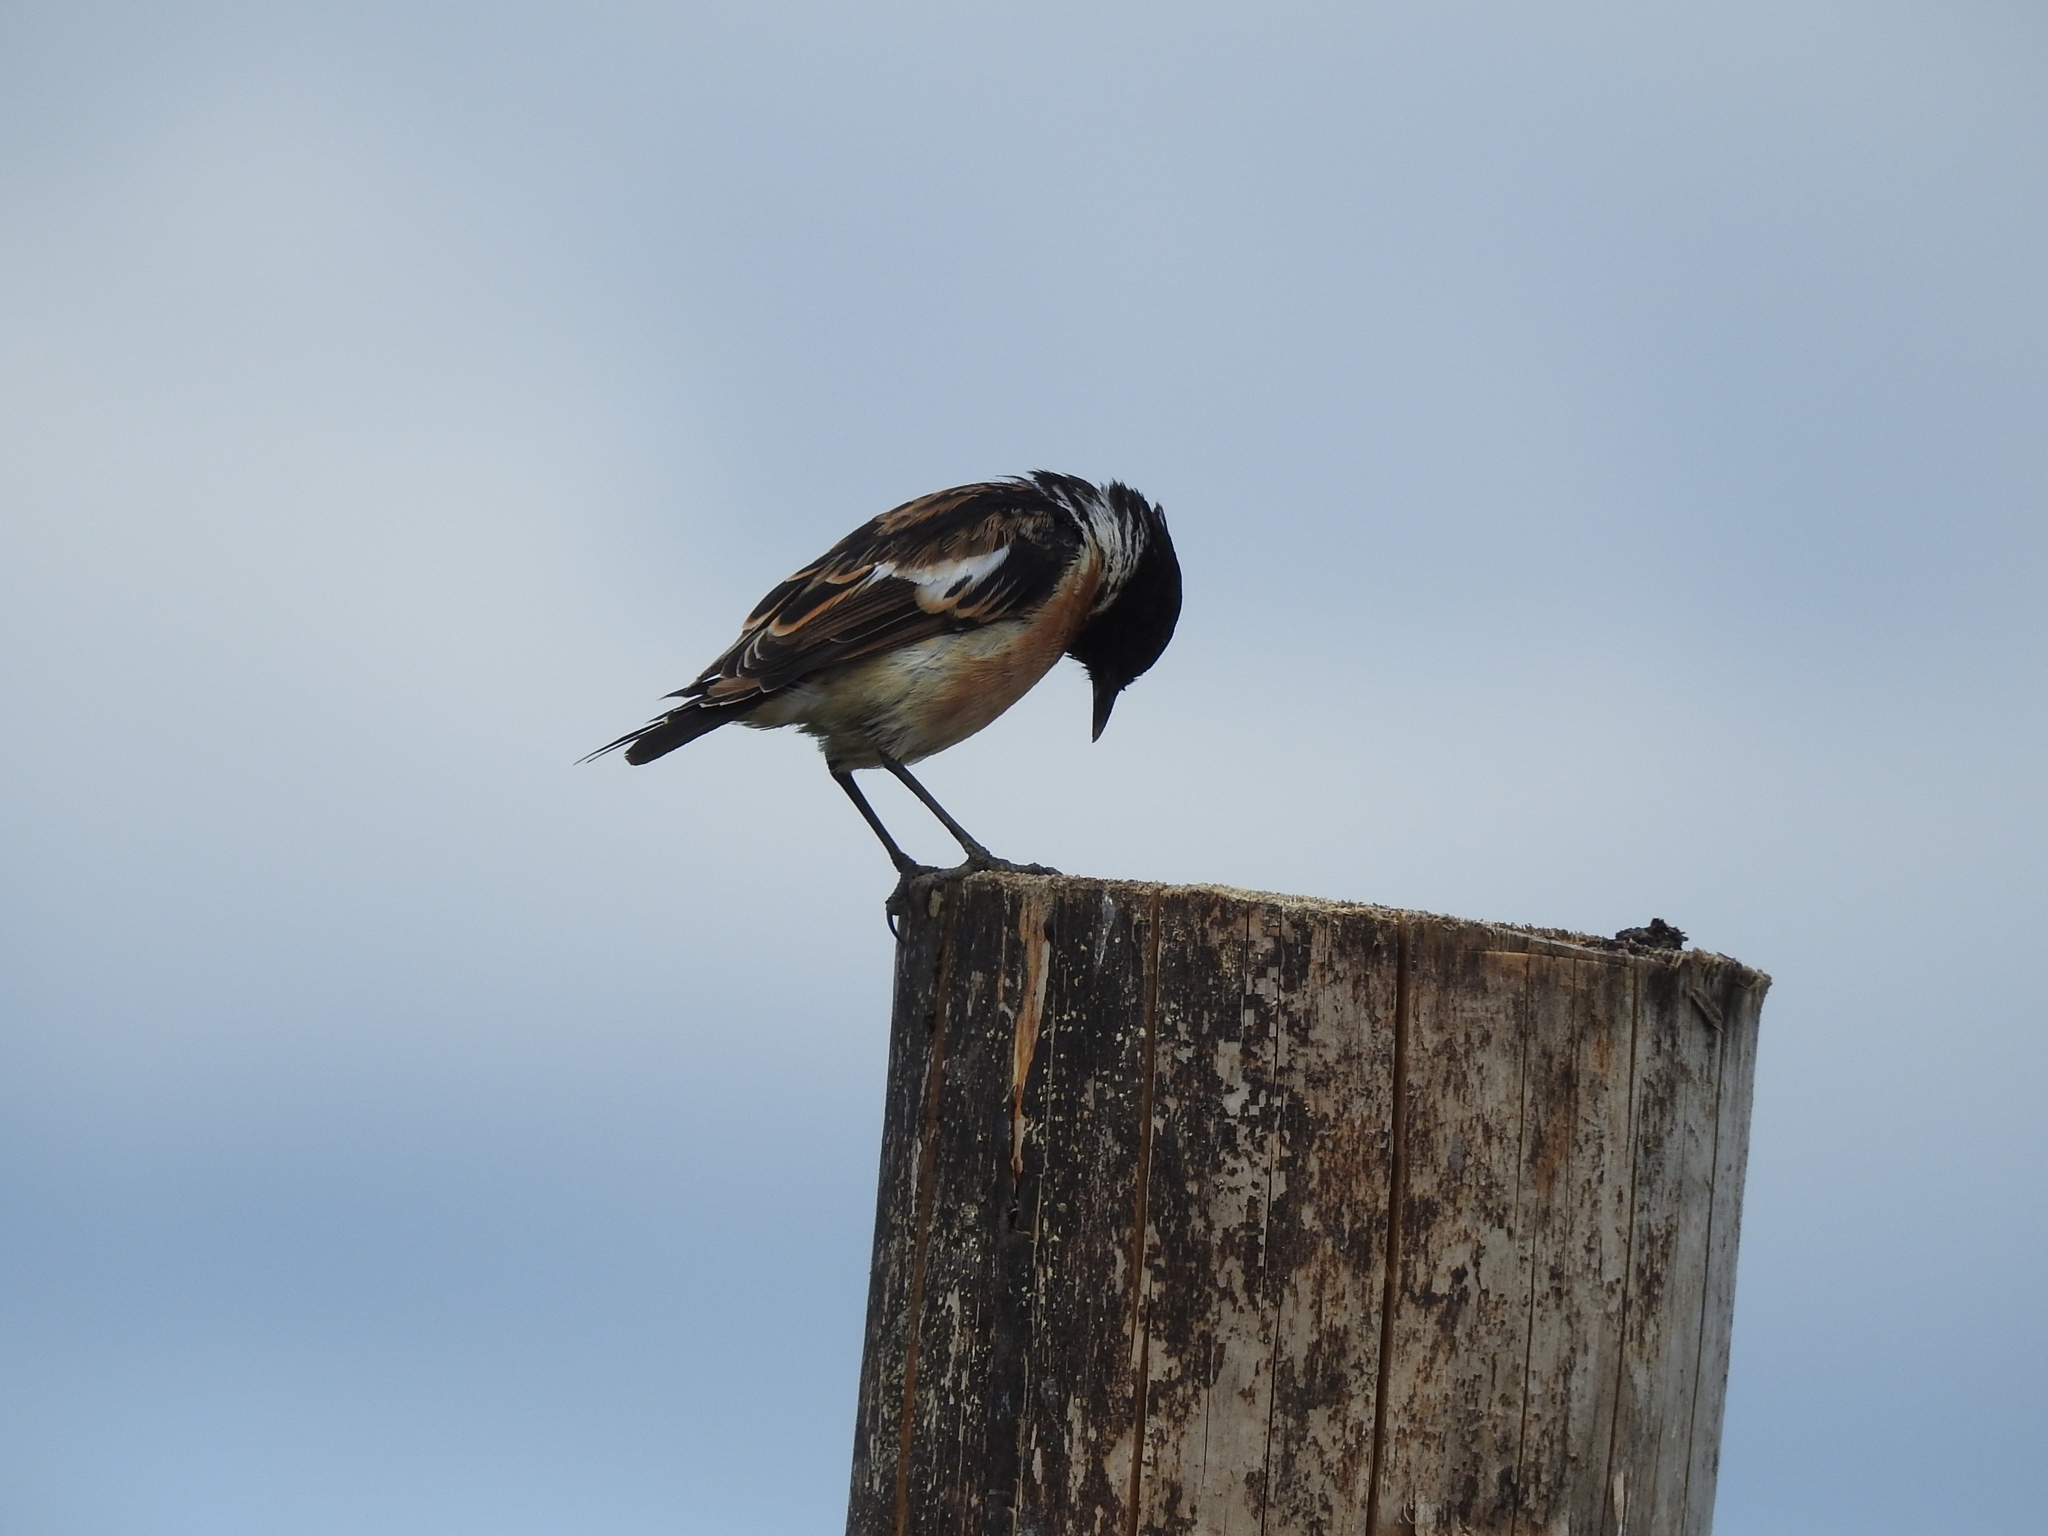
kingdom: Animalia
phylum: Chordata
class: Aves
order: Passeriformes
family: Muscicapidae
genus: Saxicola
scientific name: Saxicola maurus
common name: Siberian stonechat
